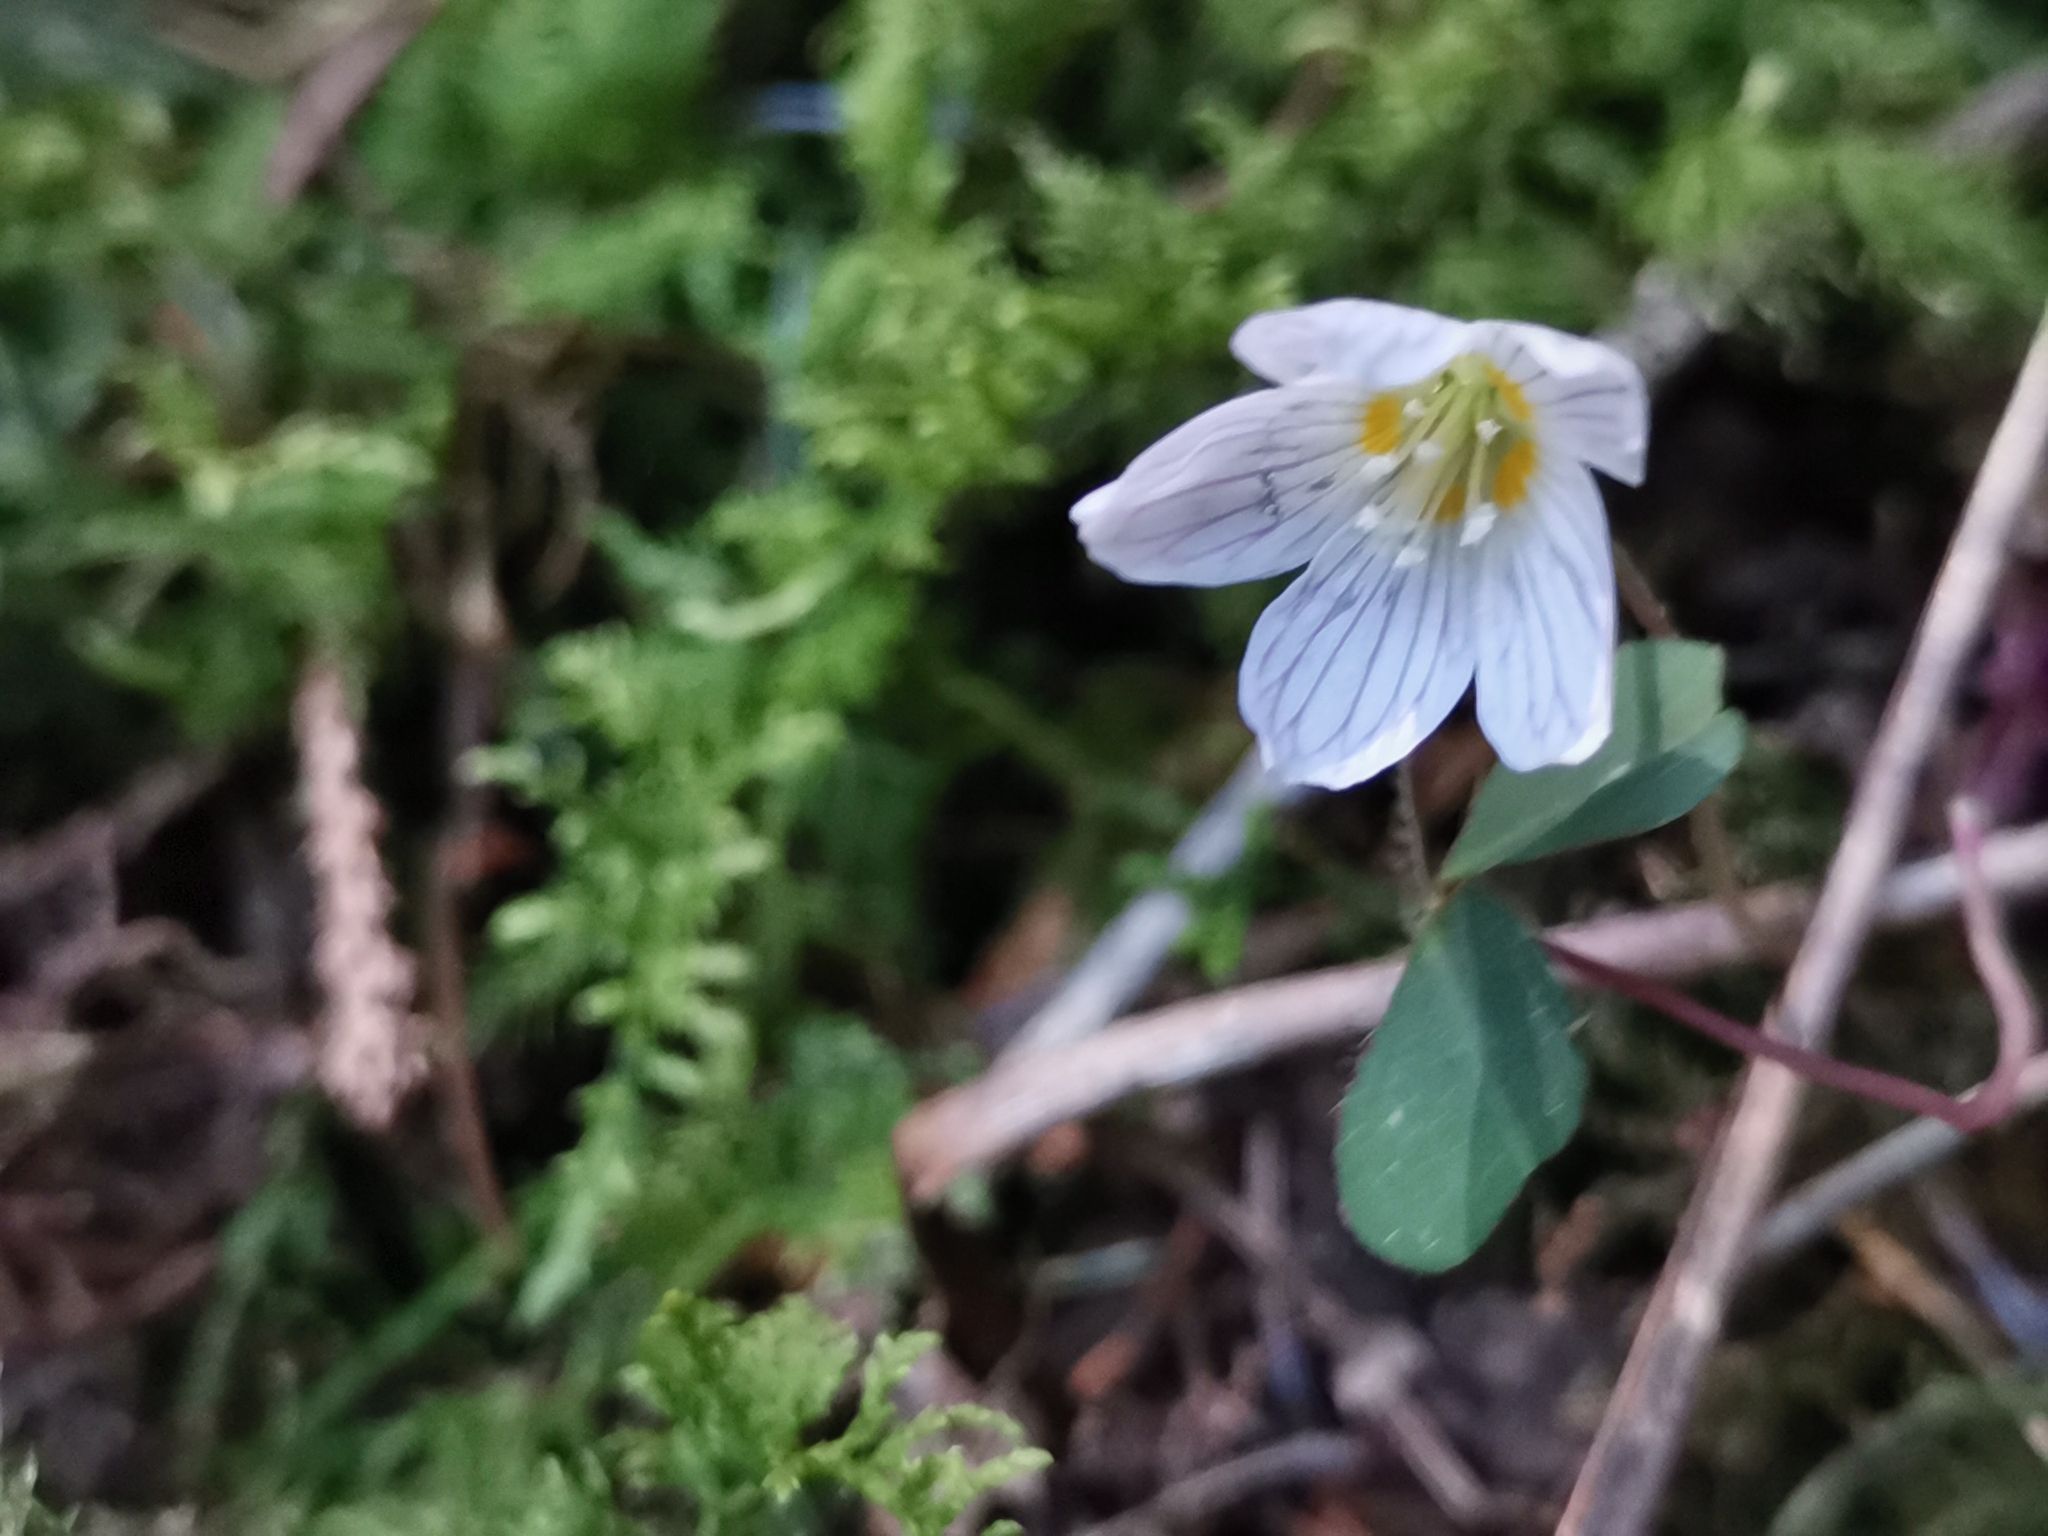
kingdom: Plantae
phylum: Tracheophyta
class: Magnoliopsida
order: Oxalidales
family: Oxalidaceae
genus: Oxalis
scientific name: Oxalis acetosella
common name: Wood-sorrel
